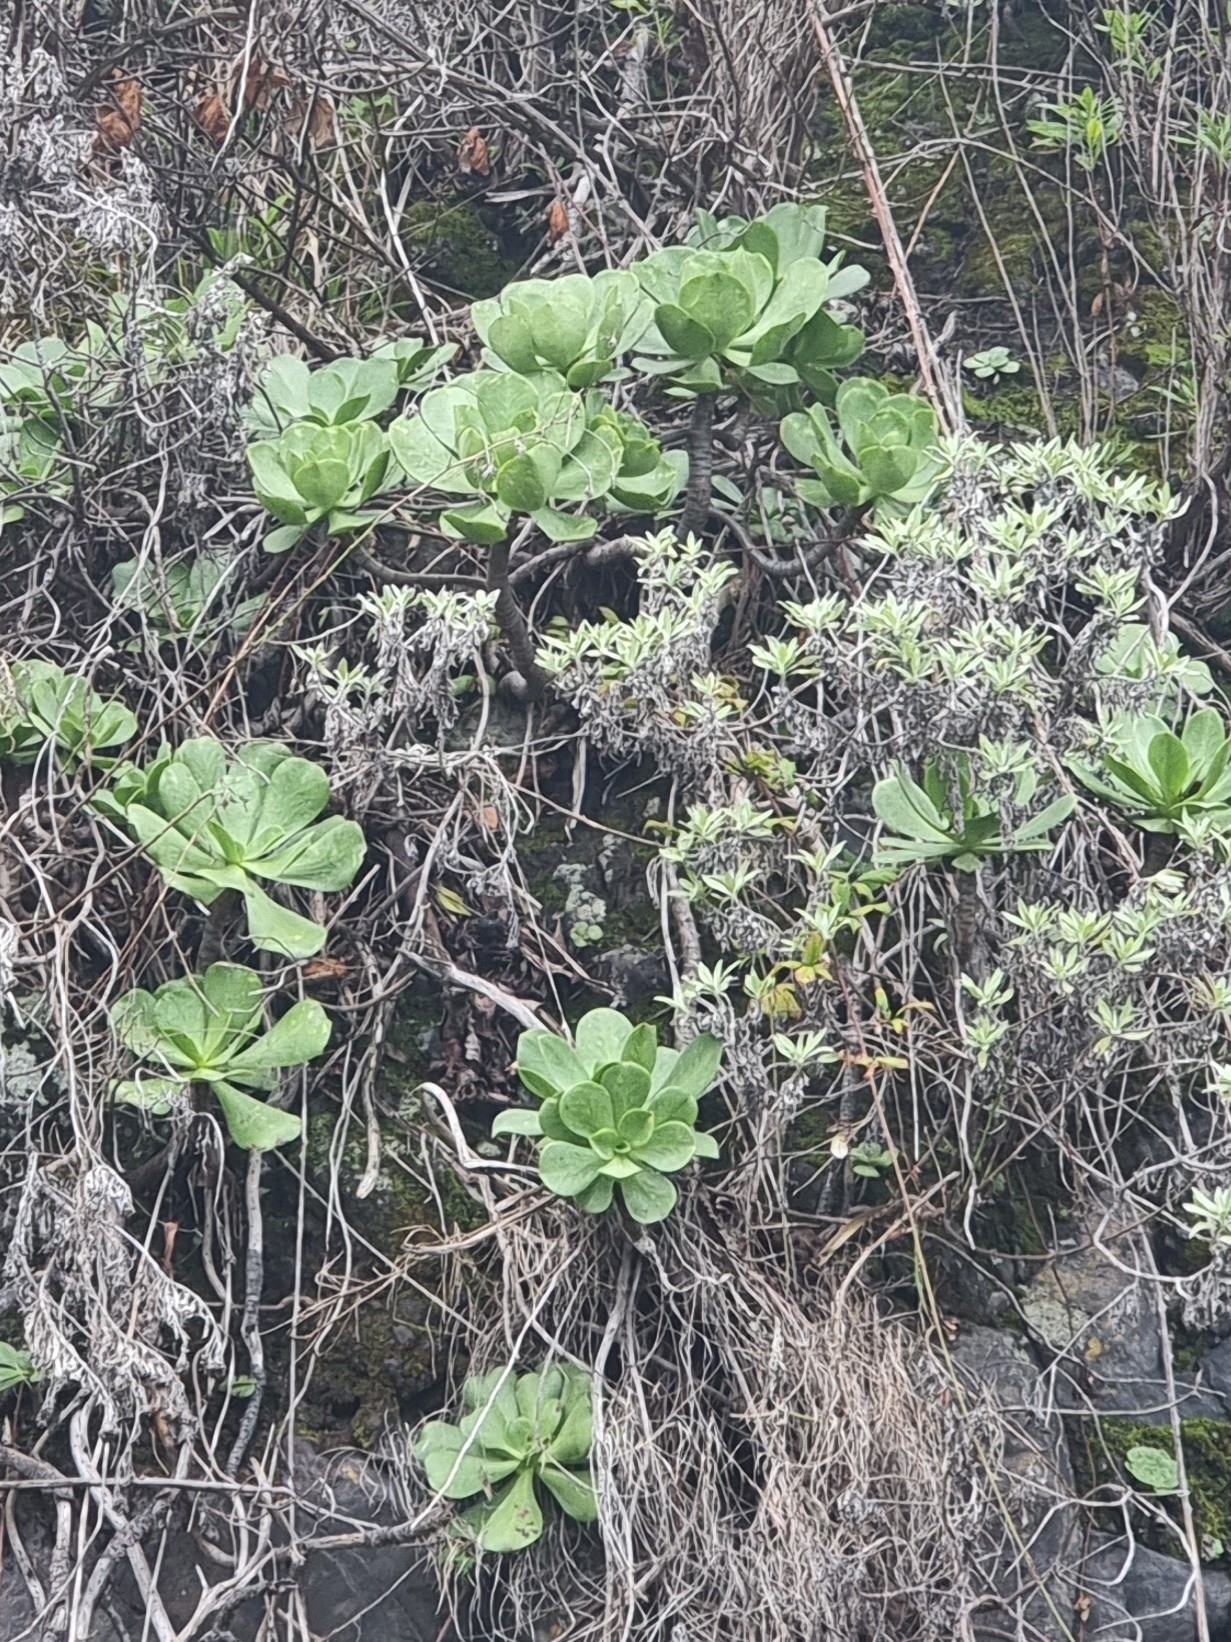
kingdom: Plantae
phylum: Tracheophyta
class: Magnoliopsida
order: Saxifragales
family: Crassulaceae
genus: Aeonium
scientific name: Aeonium glutinosum
